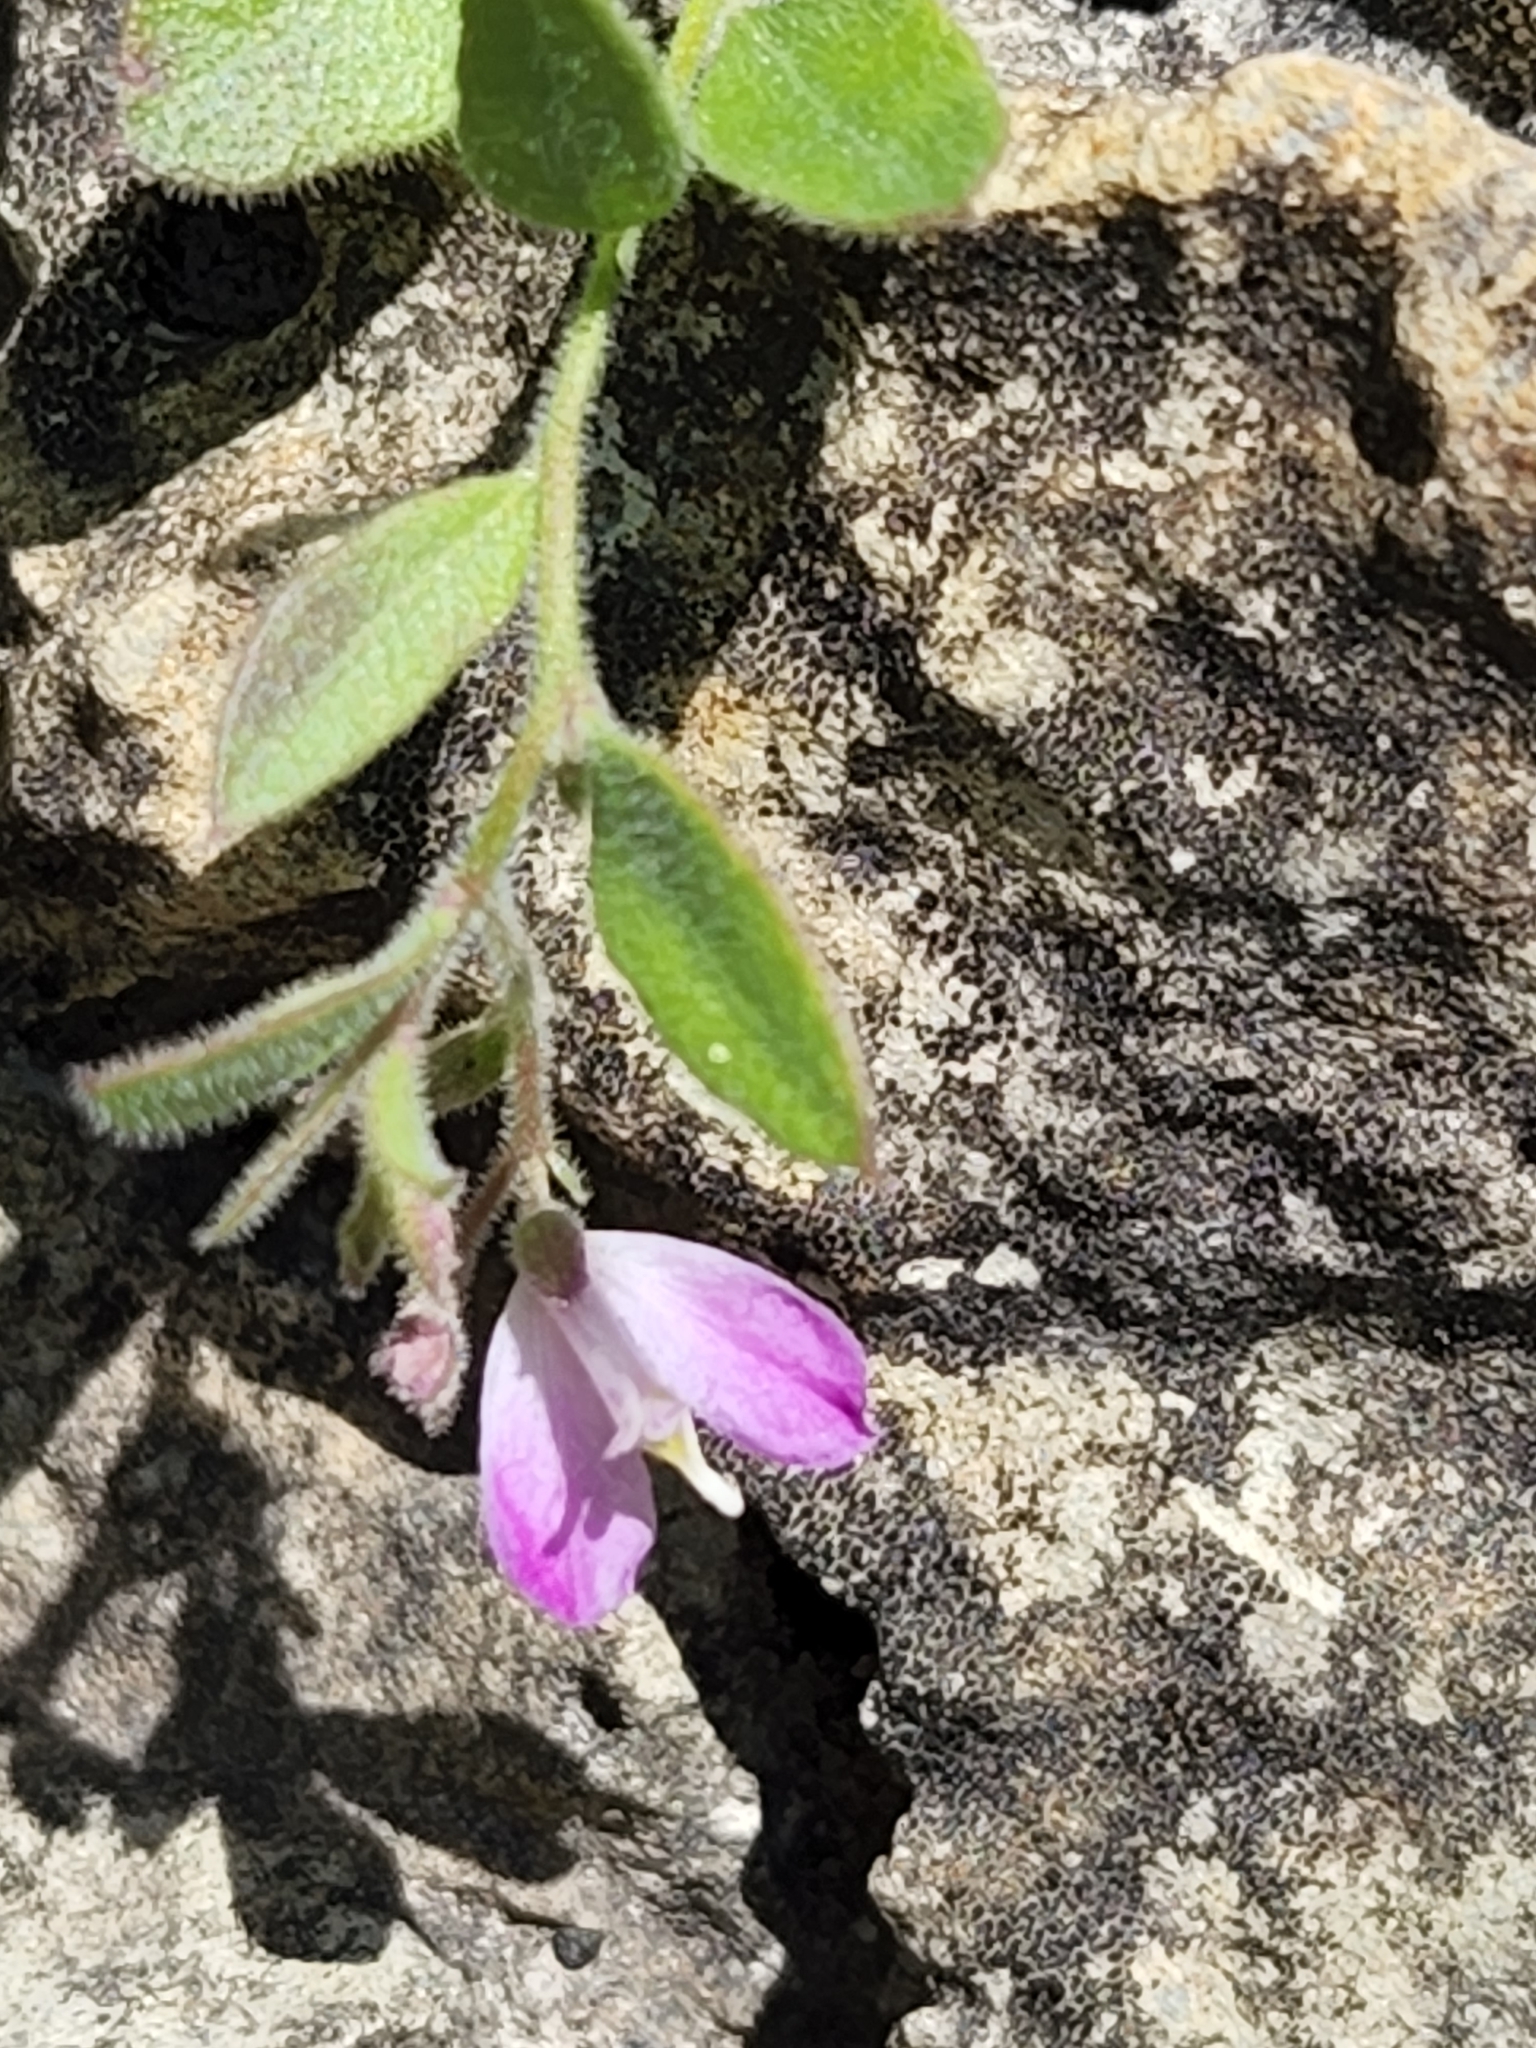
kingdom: Plantae
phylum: Tracheophyta
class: Magnoliopsida
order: Fabales
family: Polygalaceae
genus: Rhinotropis
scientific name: Rhinotropis lindheimeri
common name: Shrubby milkwort
